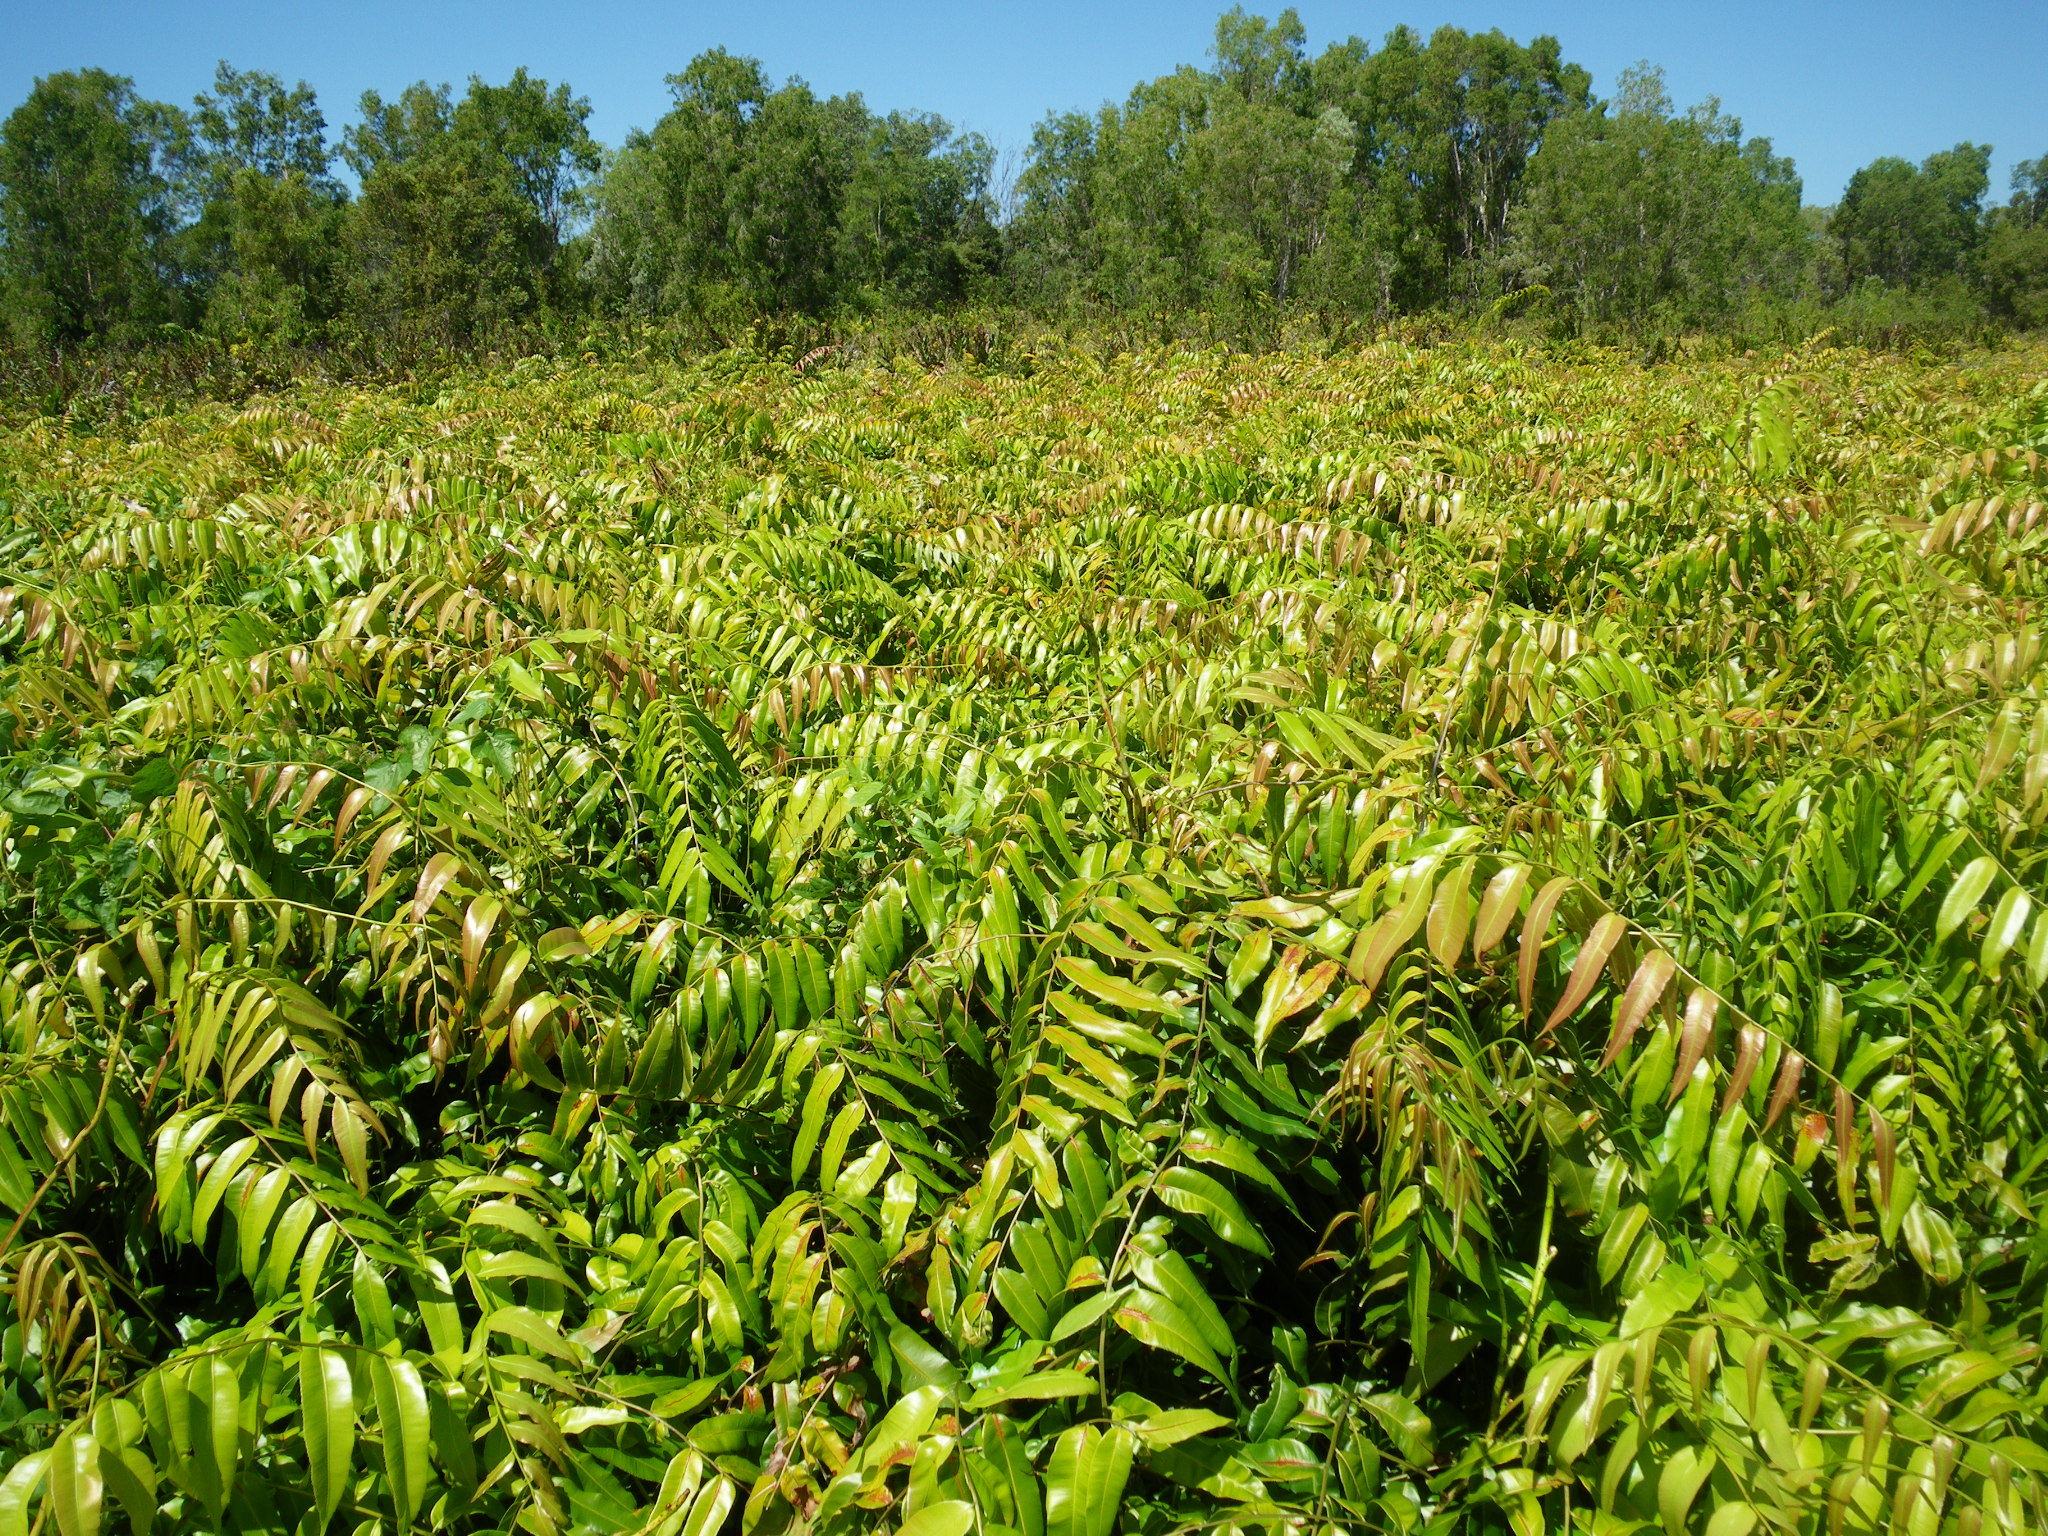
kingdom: Plantae
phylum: Tracheophyta
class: Polypodiopsida
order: Polypodiales
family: Blechnaceae
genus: Stenochlaena
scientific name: Stenochlaena palustris
